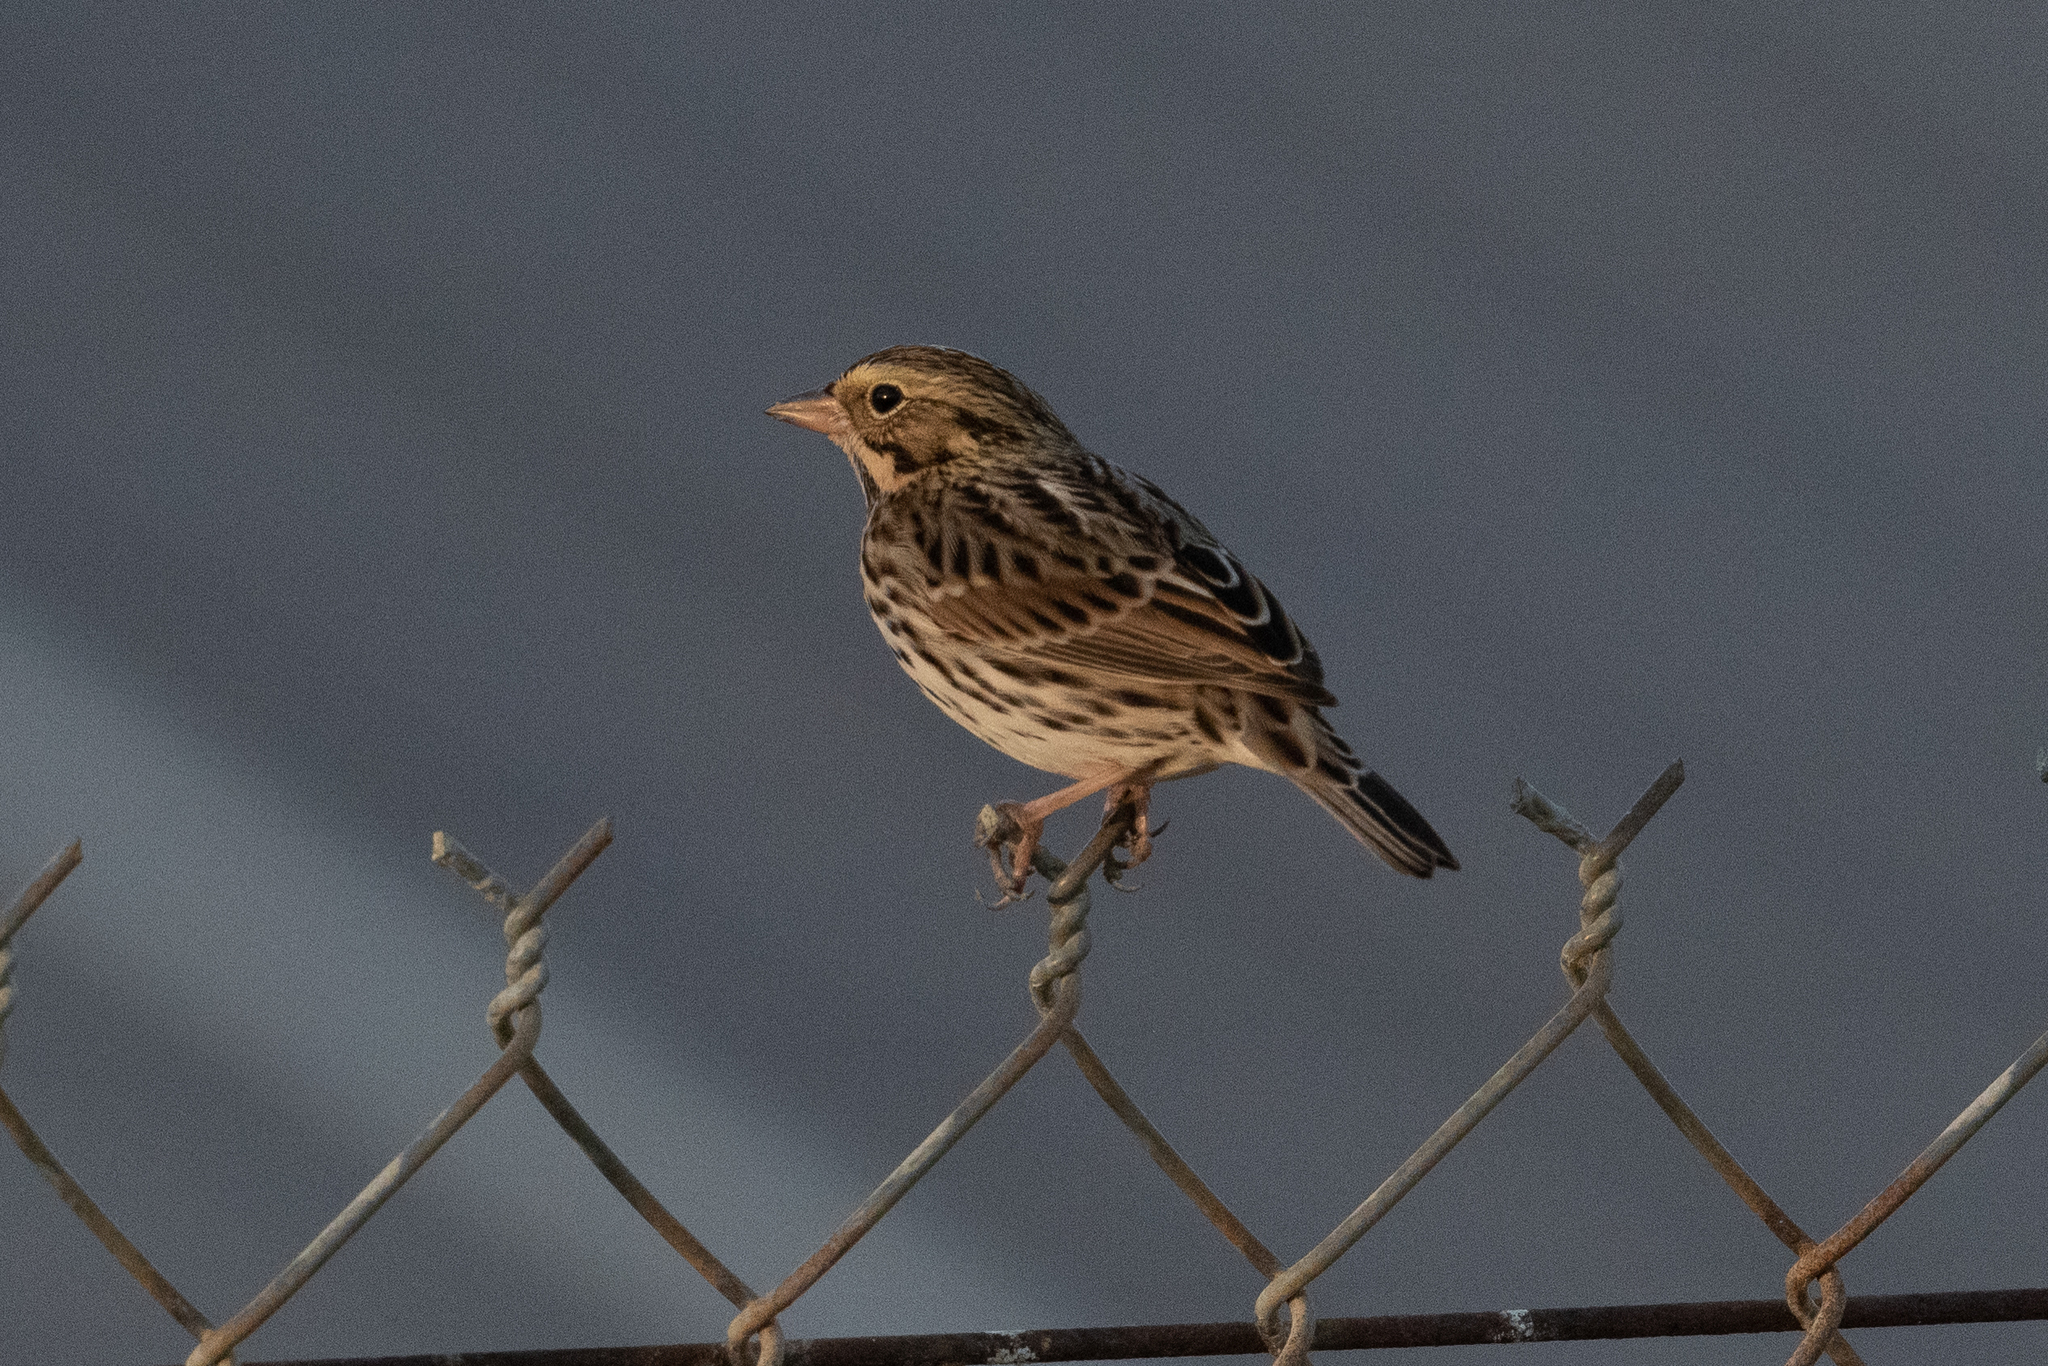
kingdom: Animalia
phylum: Chordata
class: Aves
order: Passeriformes
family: Passerellidae
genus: Passerculus
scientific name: Passerculus sandwichensis
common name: Savannah sparrow
